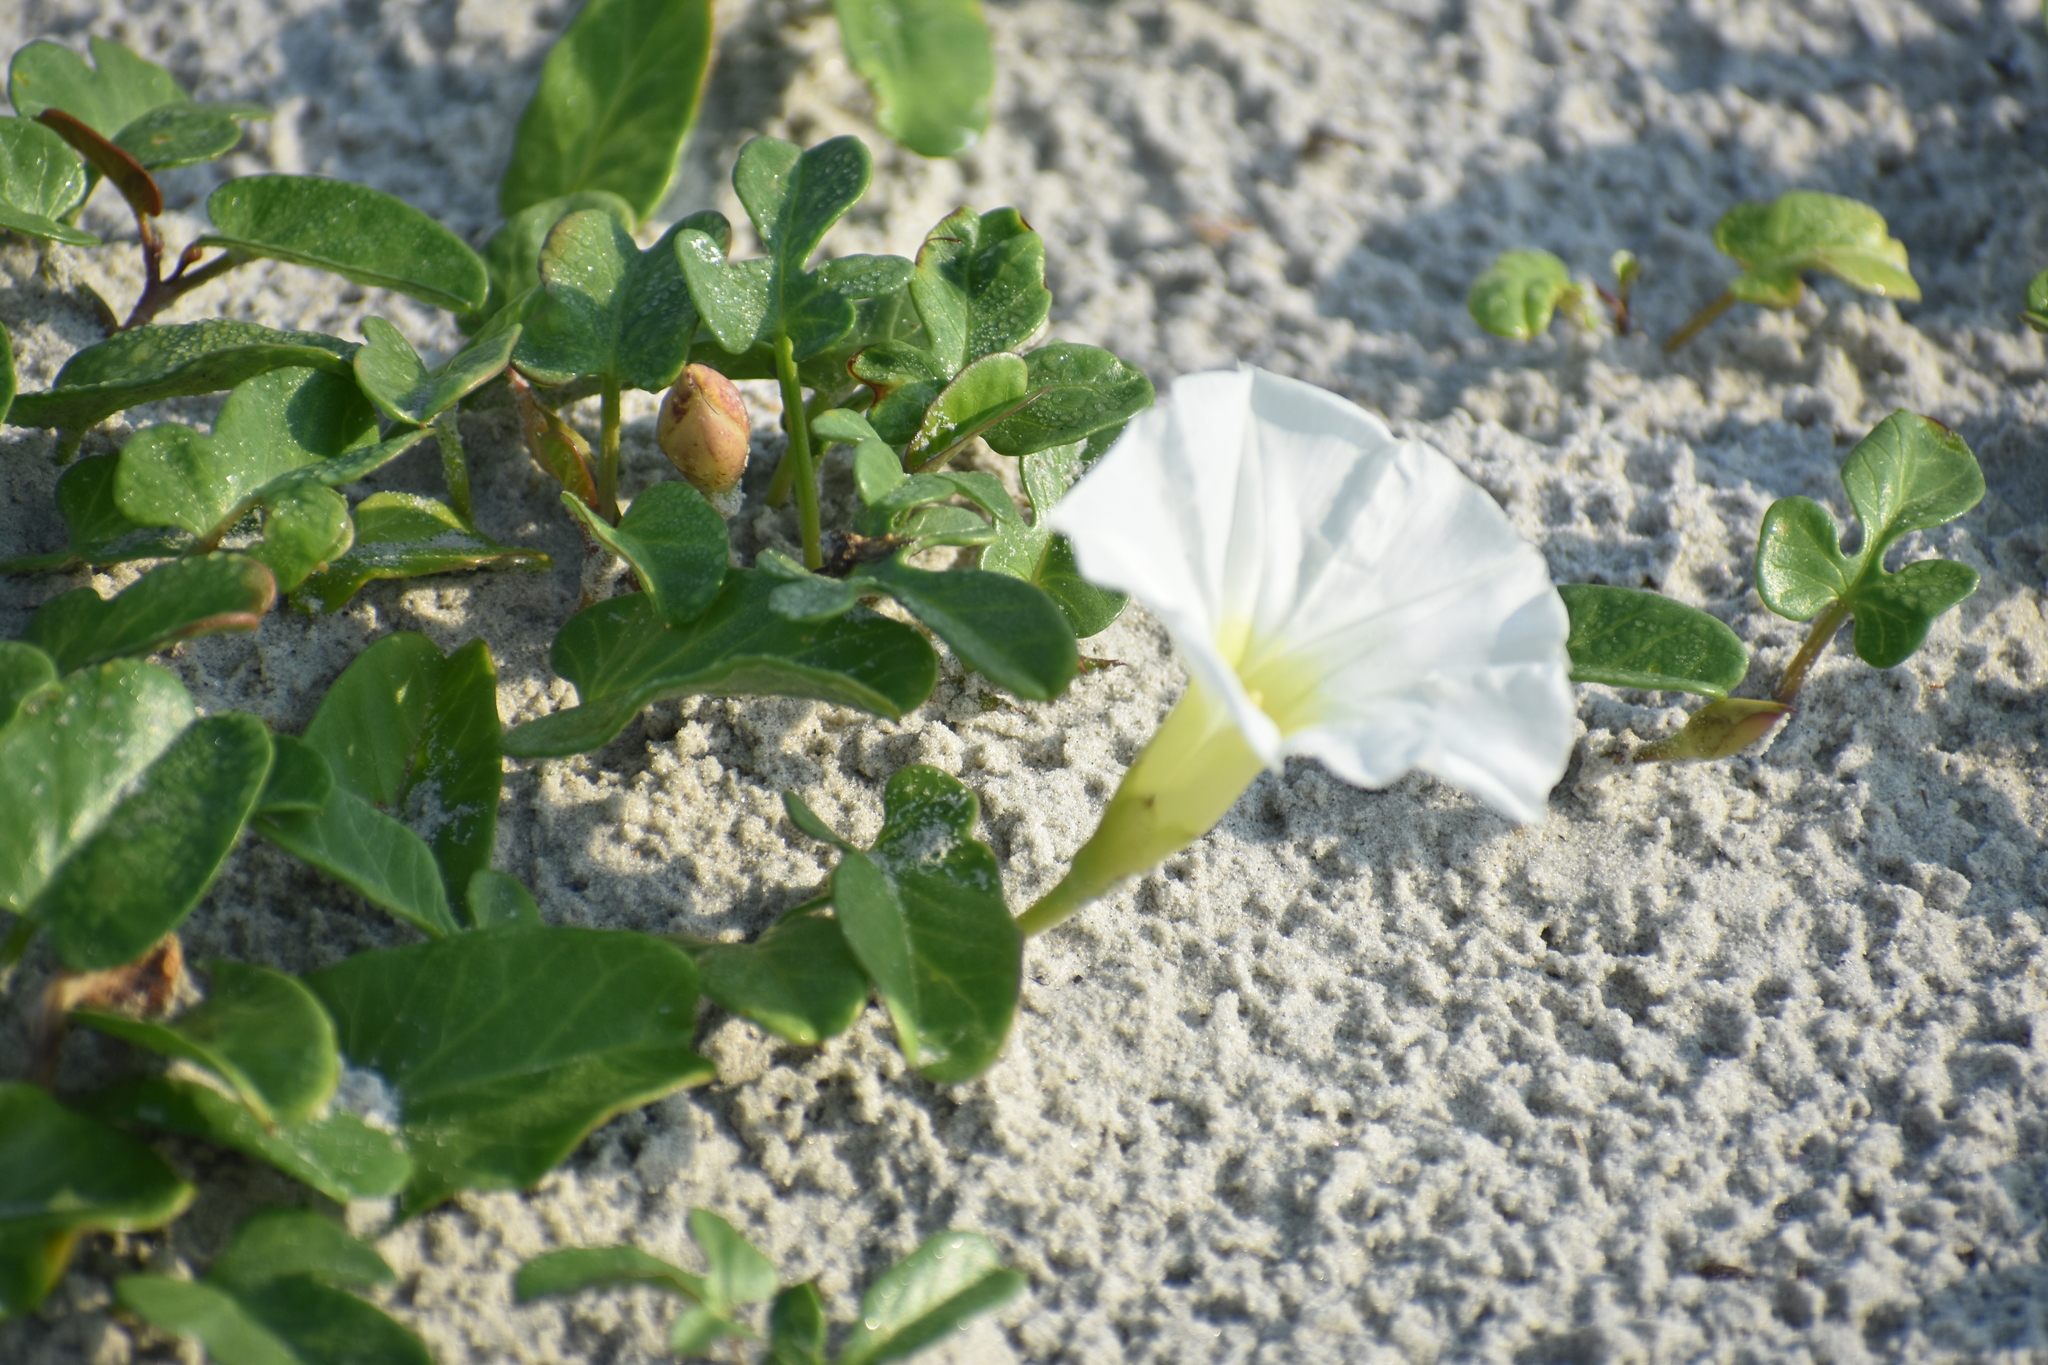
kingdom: Plantae
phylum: Tracheophyta
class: Magnoliopsida
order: Solanales
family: Convolvulaceae
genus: Ipomoea
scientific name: Ipomoea imperati
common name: Fiddle-leaf morning-glory
